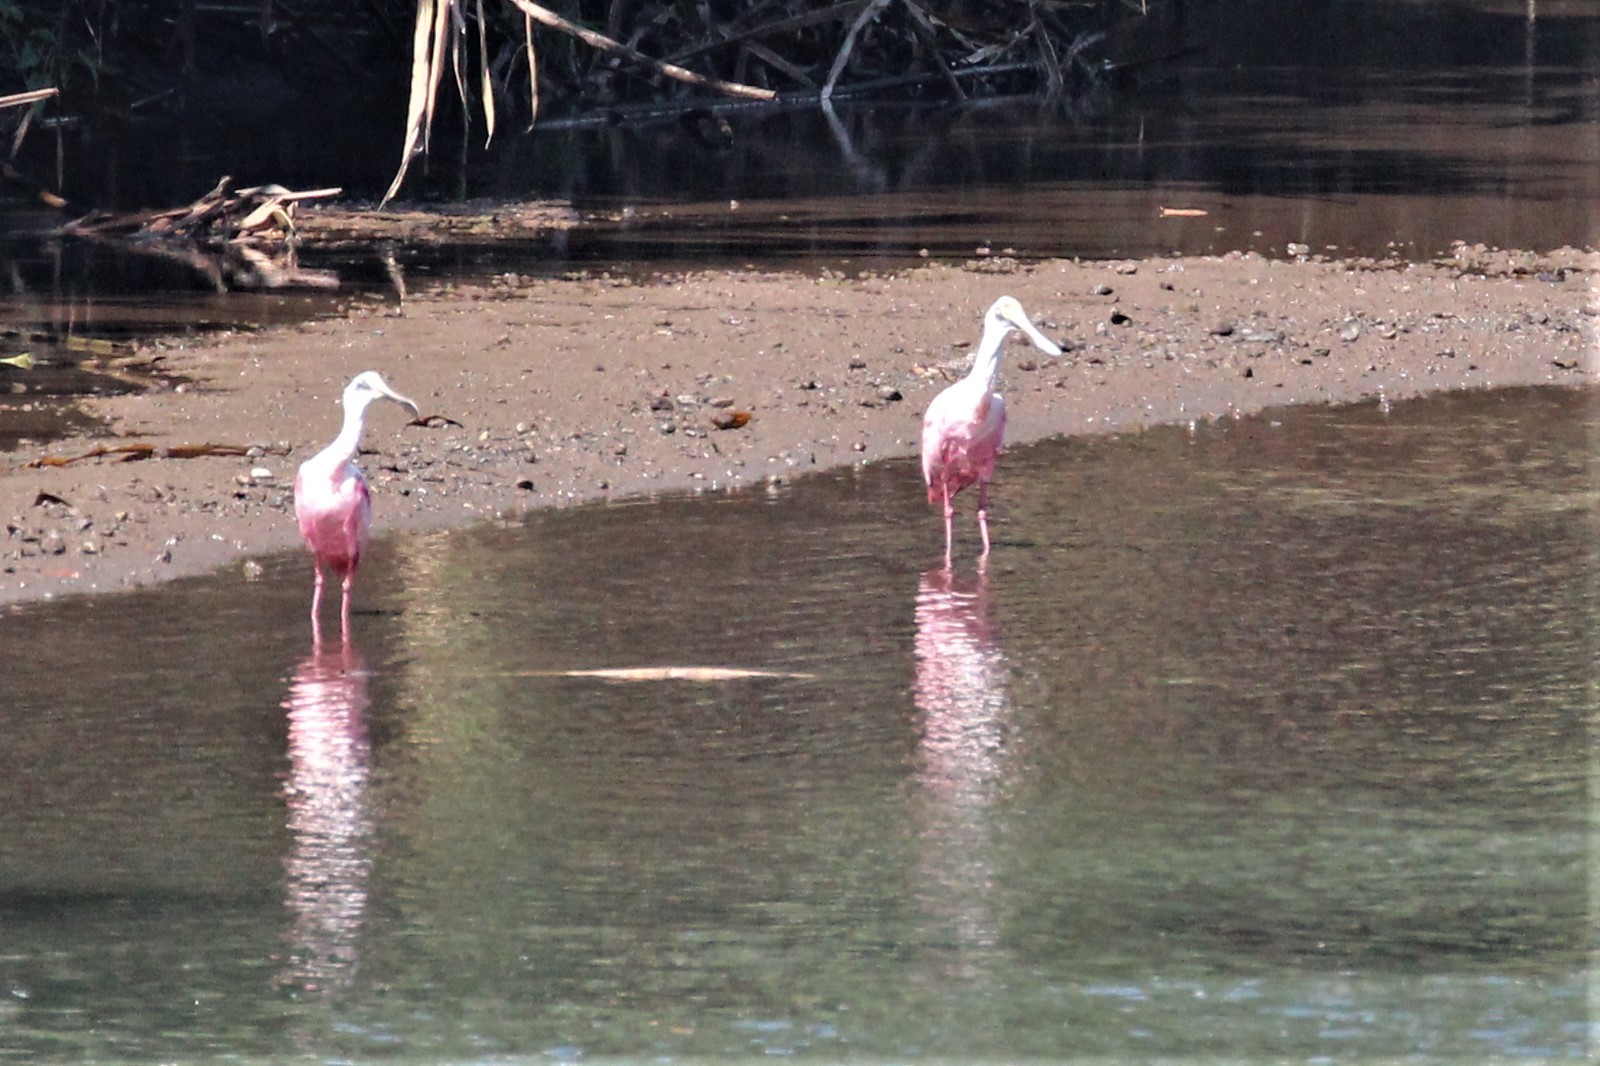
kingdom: Animalia
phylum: Chordata
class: Aves
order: Pelecaniformes
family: Threskiornithidae
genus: Platalea
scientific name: Platalea ajaja
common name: Roseate spoonbill
